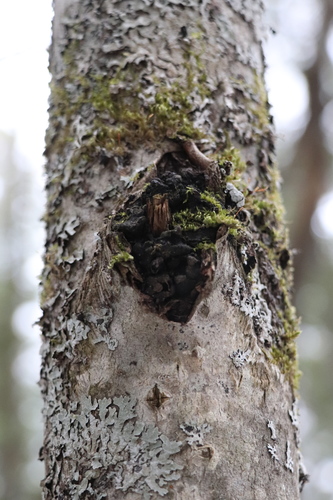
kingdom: Fungi
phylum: Ascomycota
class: Sordariomycetes
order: Xylariales
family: Graphostromataceae
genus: Biscogniauxia
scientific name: Biscogniauxia repanda
